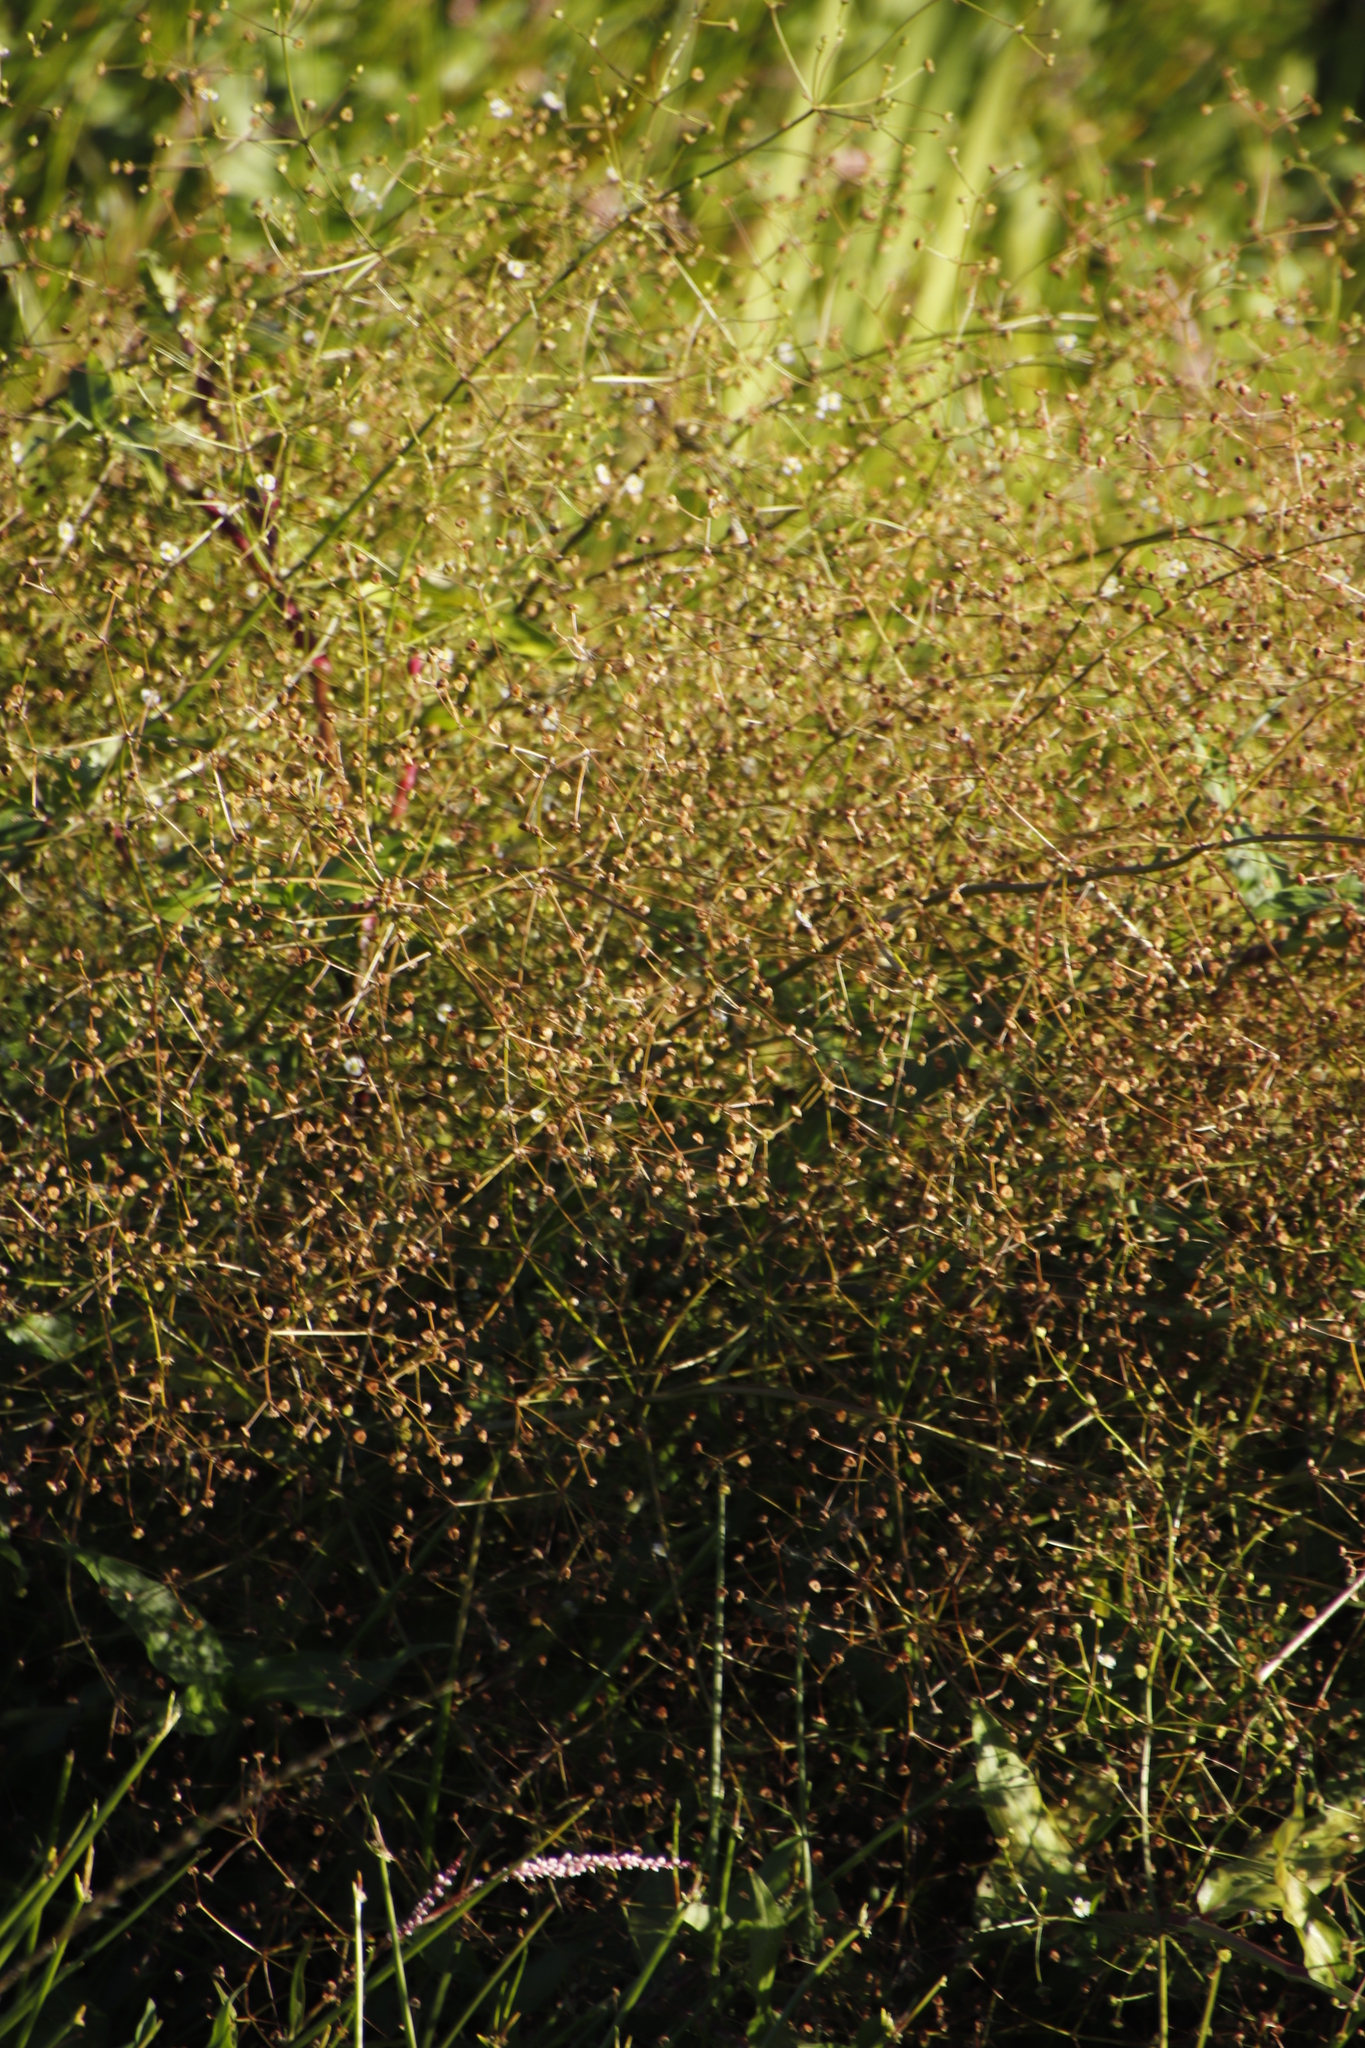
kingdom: Plantae
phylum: Tracheophyta
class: Liliopsida
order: Alismatales
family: Alismataceae
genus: Alisma
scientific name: Alisma plantago-aquatica
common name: Water-plantain
